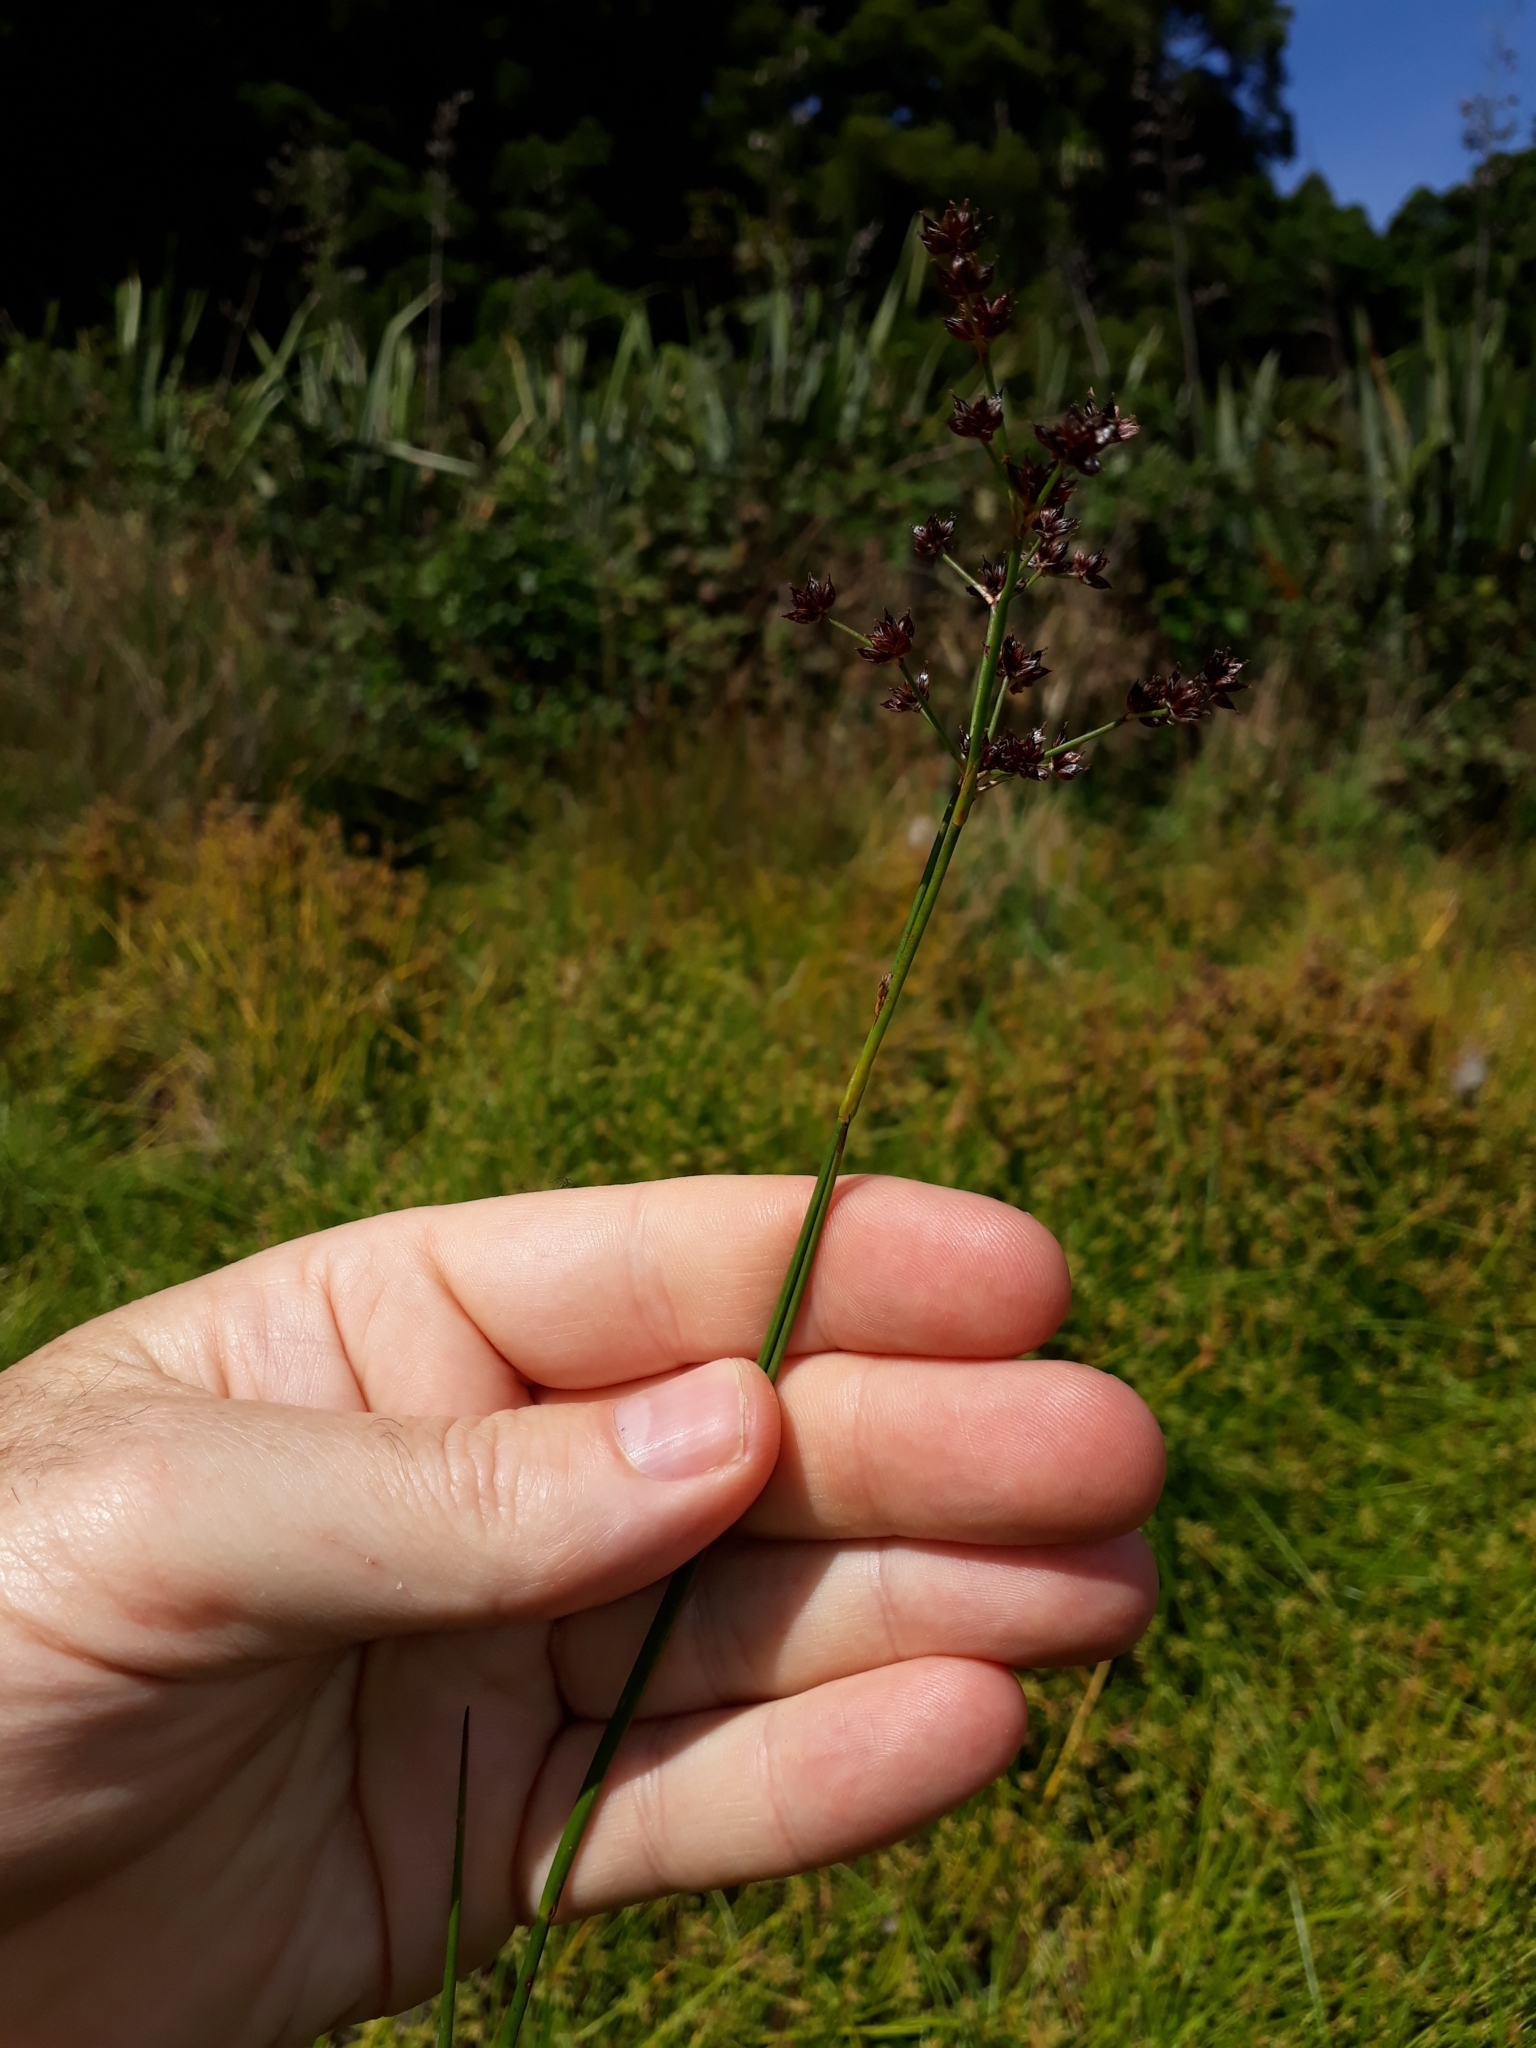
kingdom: Plantae
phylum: Tracheophyta
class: Liliopsida
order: Poales
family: Juncaceae
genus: Juncus
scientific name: Juncus articulatus
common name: Jointed rush
